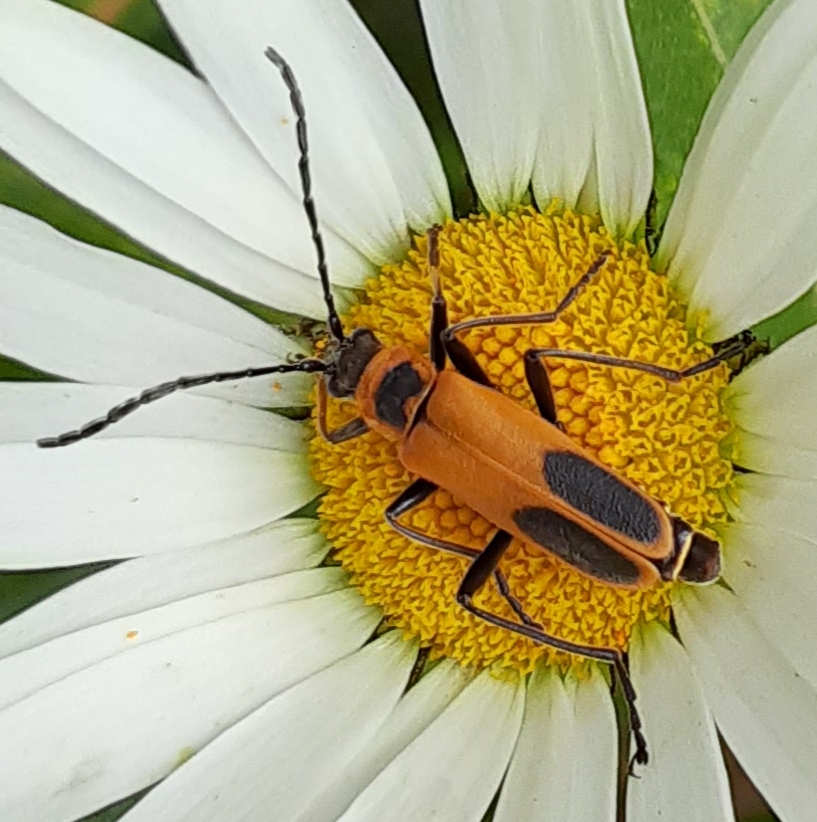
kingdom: Animalia
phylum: Arthropoda
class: Insecta
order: Coleoptera
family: Cantharidae
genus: Chauliognathus
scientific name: Chauliognathus pensylvanicus
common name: Goldenrod soldier beetle
